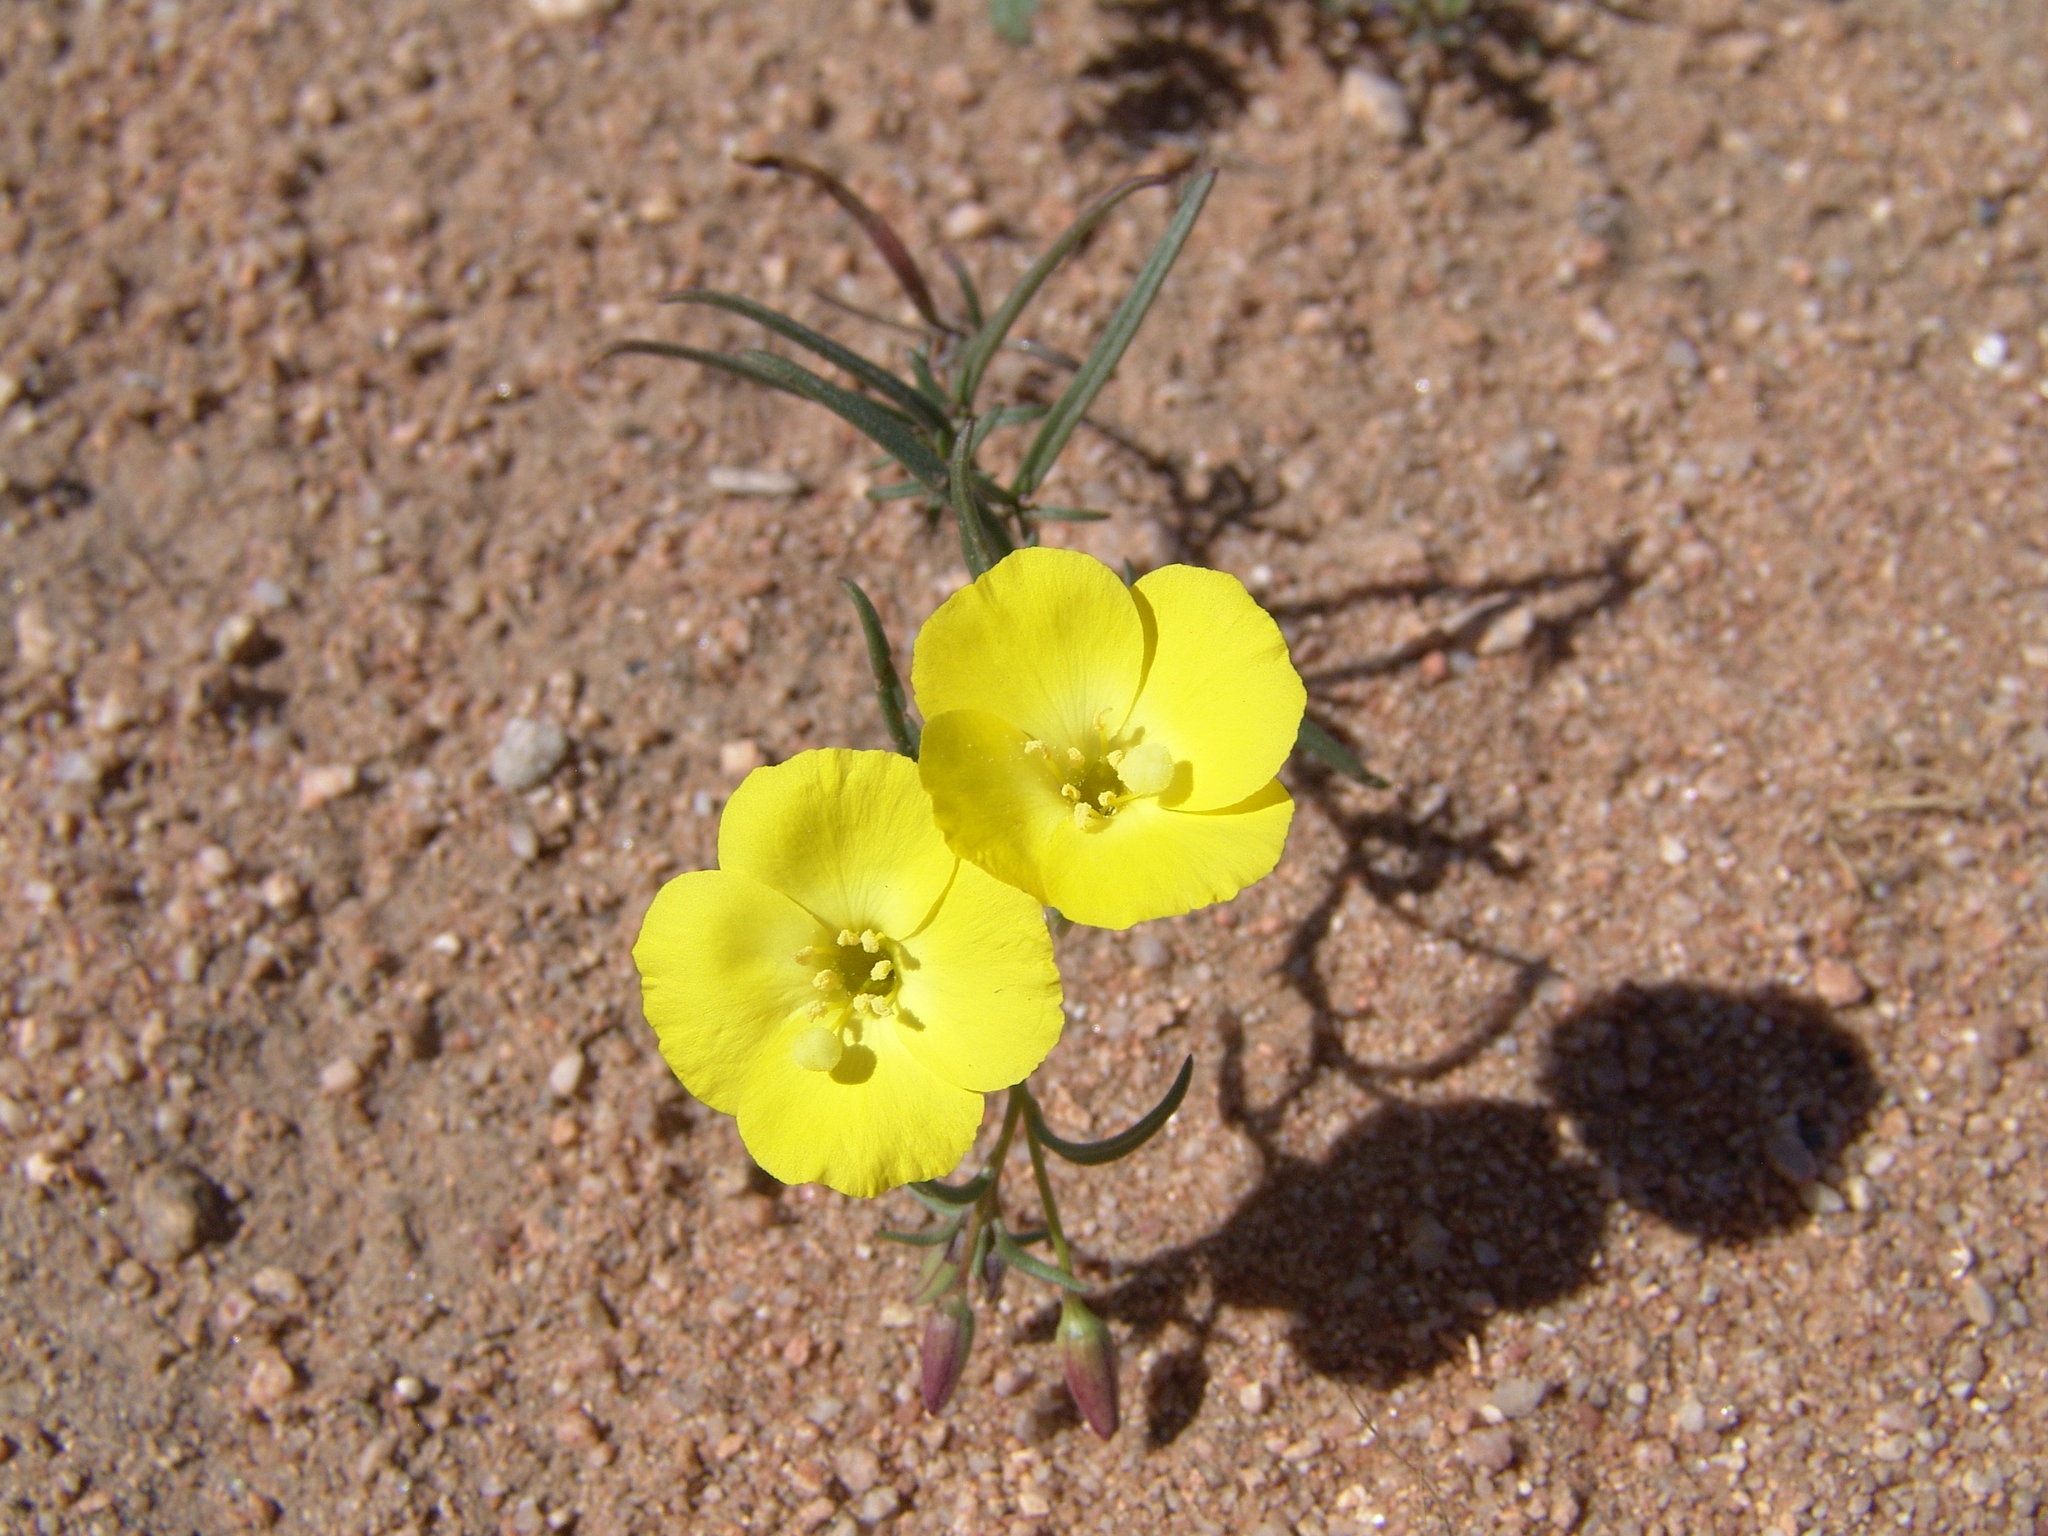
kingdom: Plantae
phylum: Tracheophyta
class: Magnoliopsida
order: Myrtales
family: Onagraceae
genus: Camissonia
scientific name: Camissonia campestris
